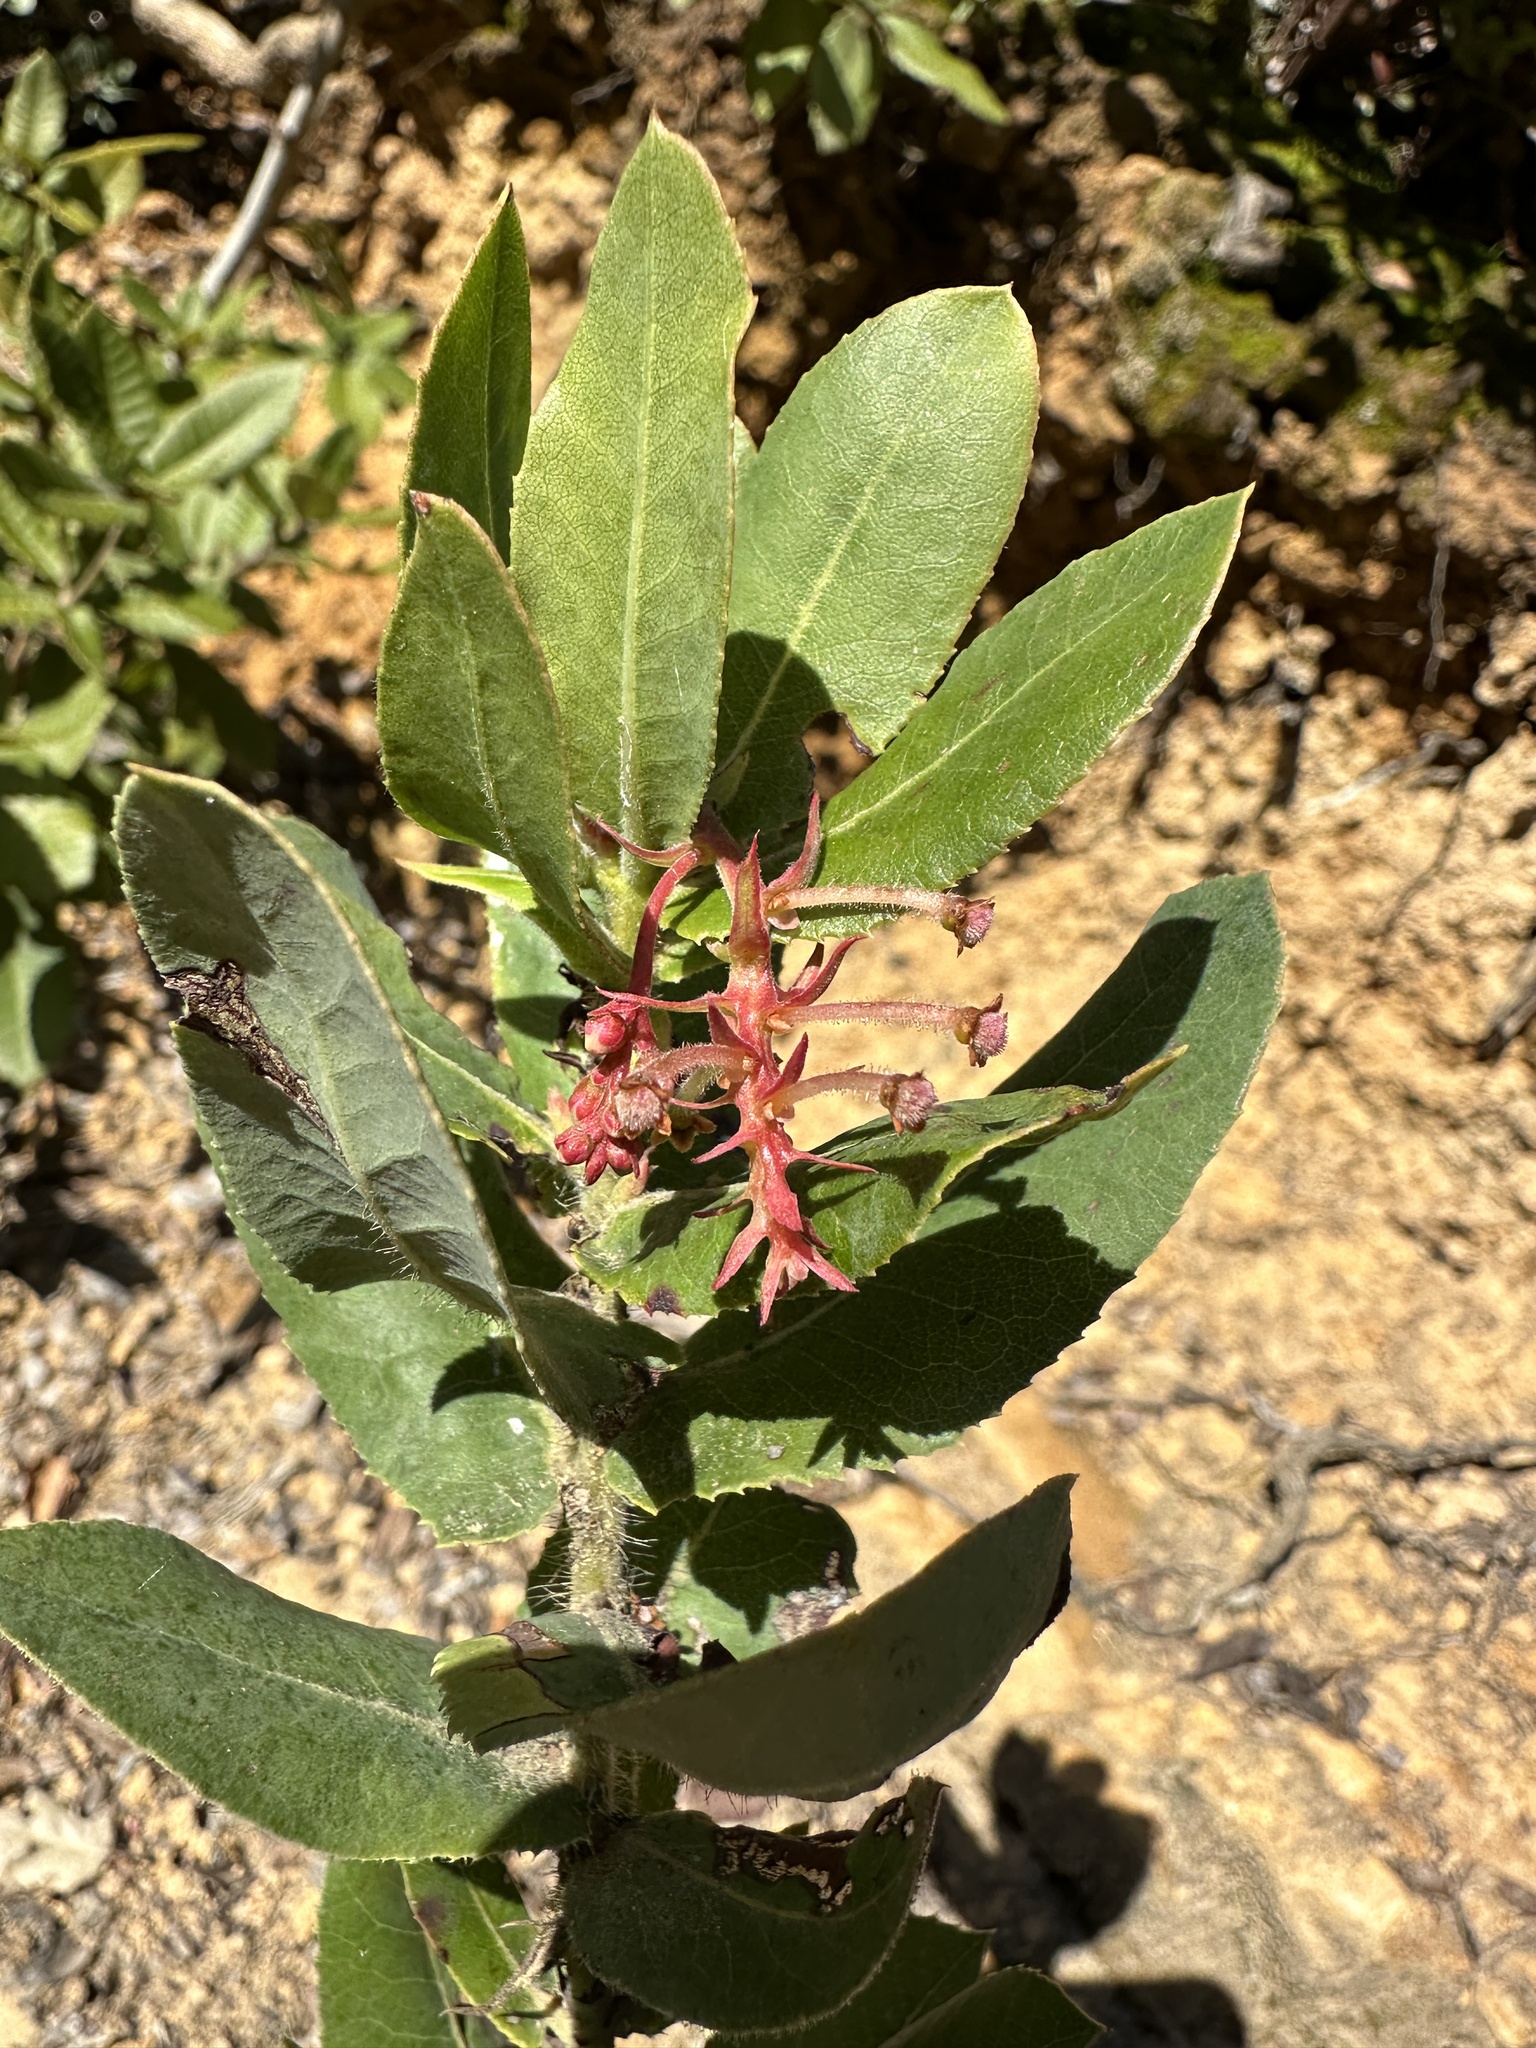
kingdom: Plantae
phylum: Tracheophyta
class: Magnoliopsida
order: Ericales
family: Ericaceae
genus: Arctostaphylos
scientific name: Arctostaphylos andersonii
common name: Santa cruz manzanita
